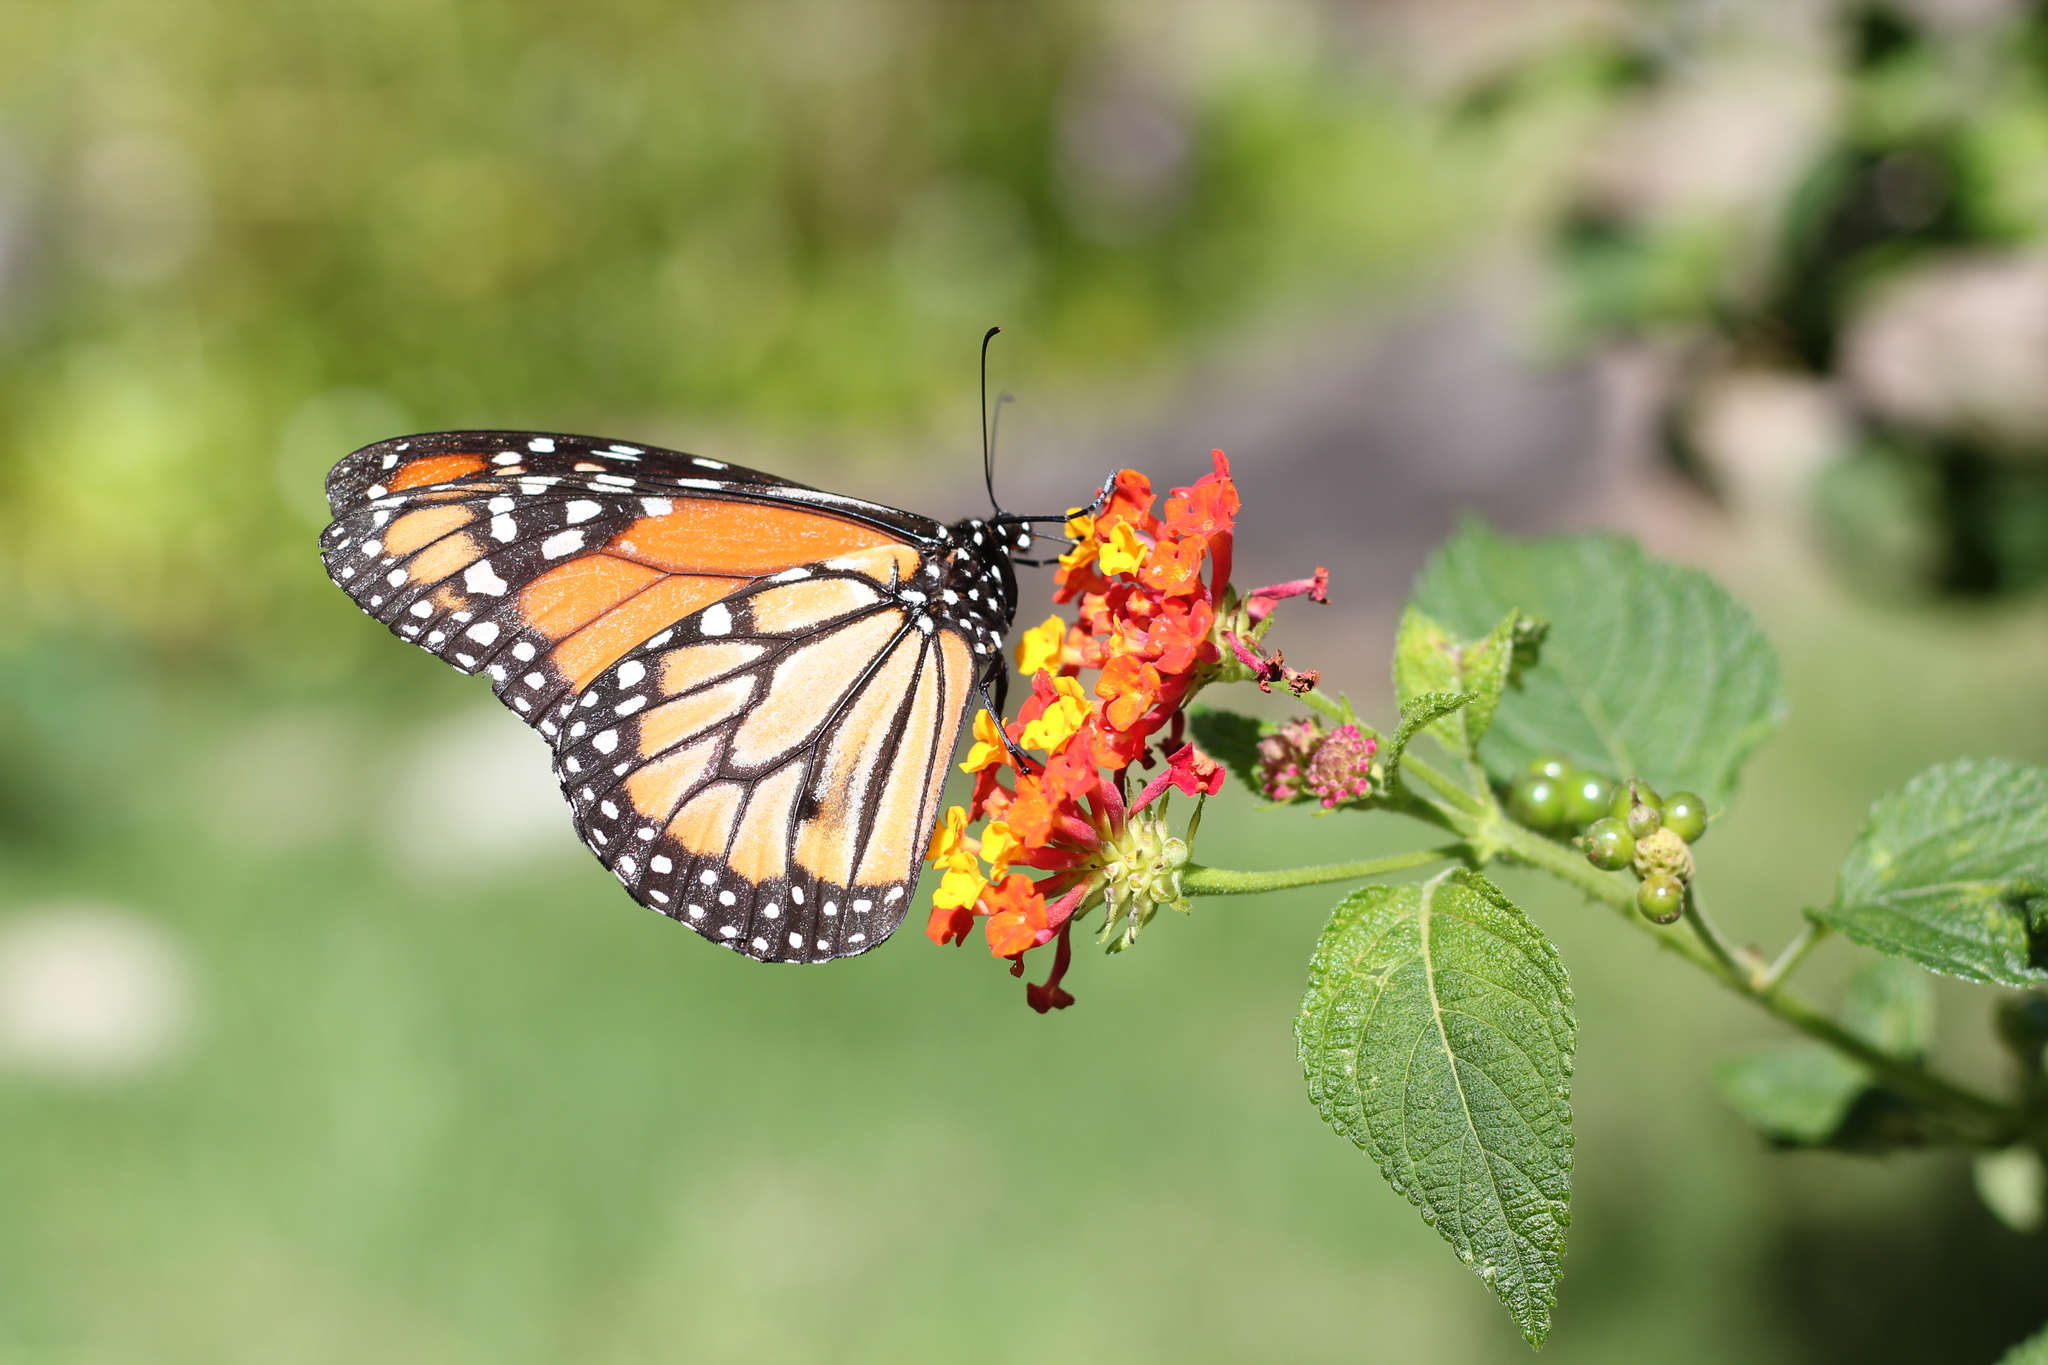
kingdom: Animalia
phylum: Arthropoda
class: Insecta
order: Lepidoptera
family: Nymphalidae
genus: Danaus
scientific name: Danaus erippus
